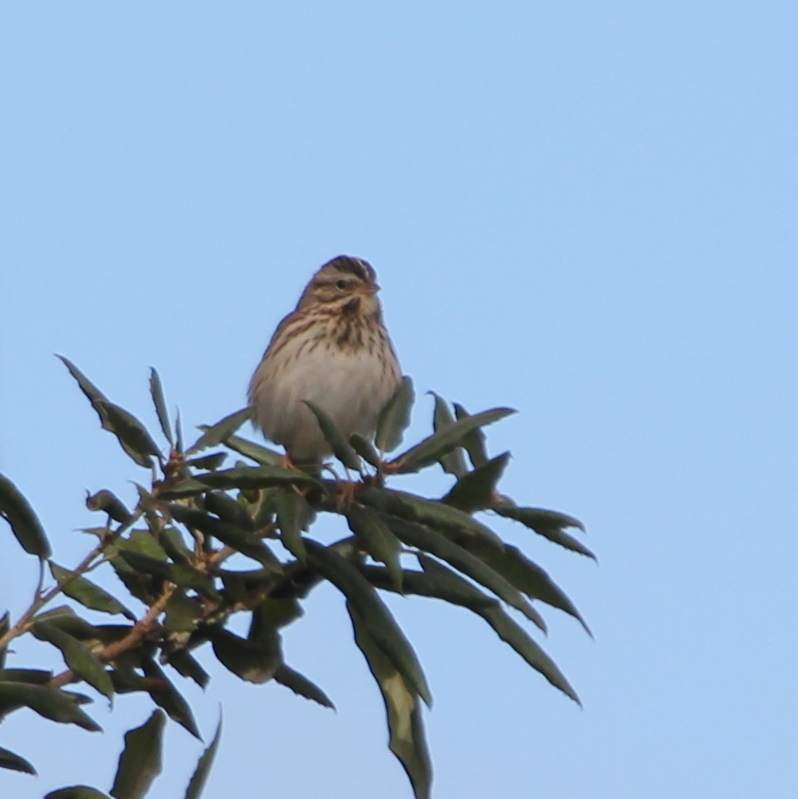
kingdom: Animalia
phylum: Chordata
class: Aves
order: Passeriformes
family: Passerellidae
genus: Passerculus
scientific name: Passerculus sandwichensis
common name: Savannah sparrow
